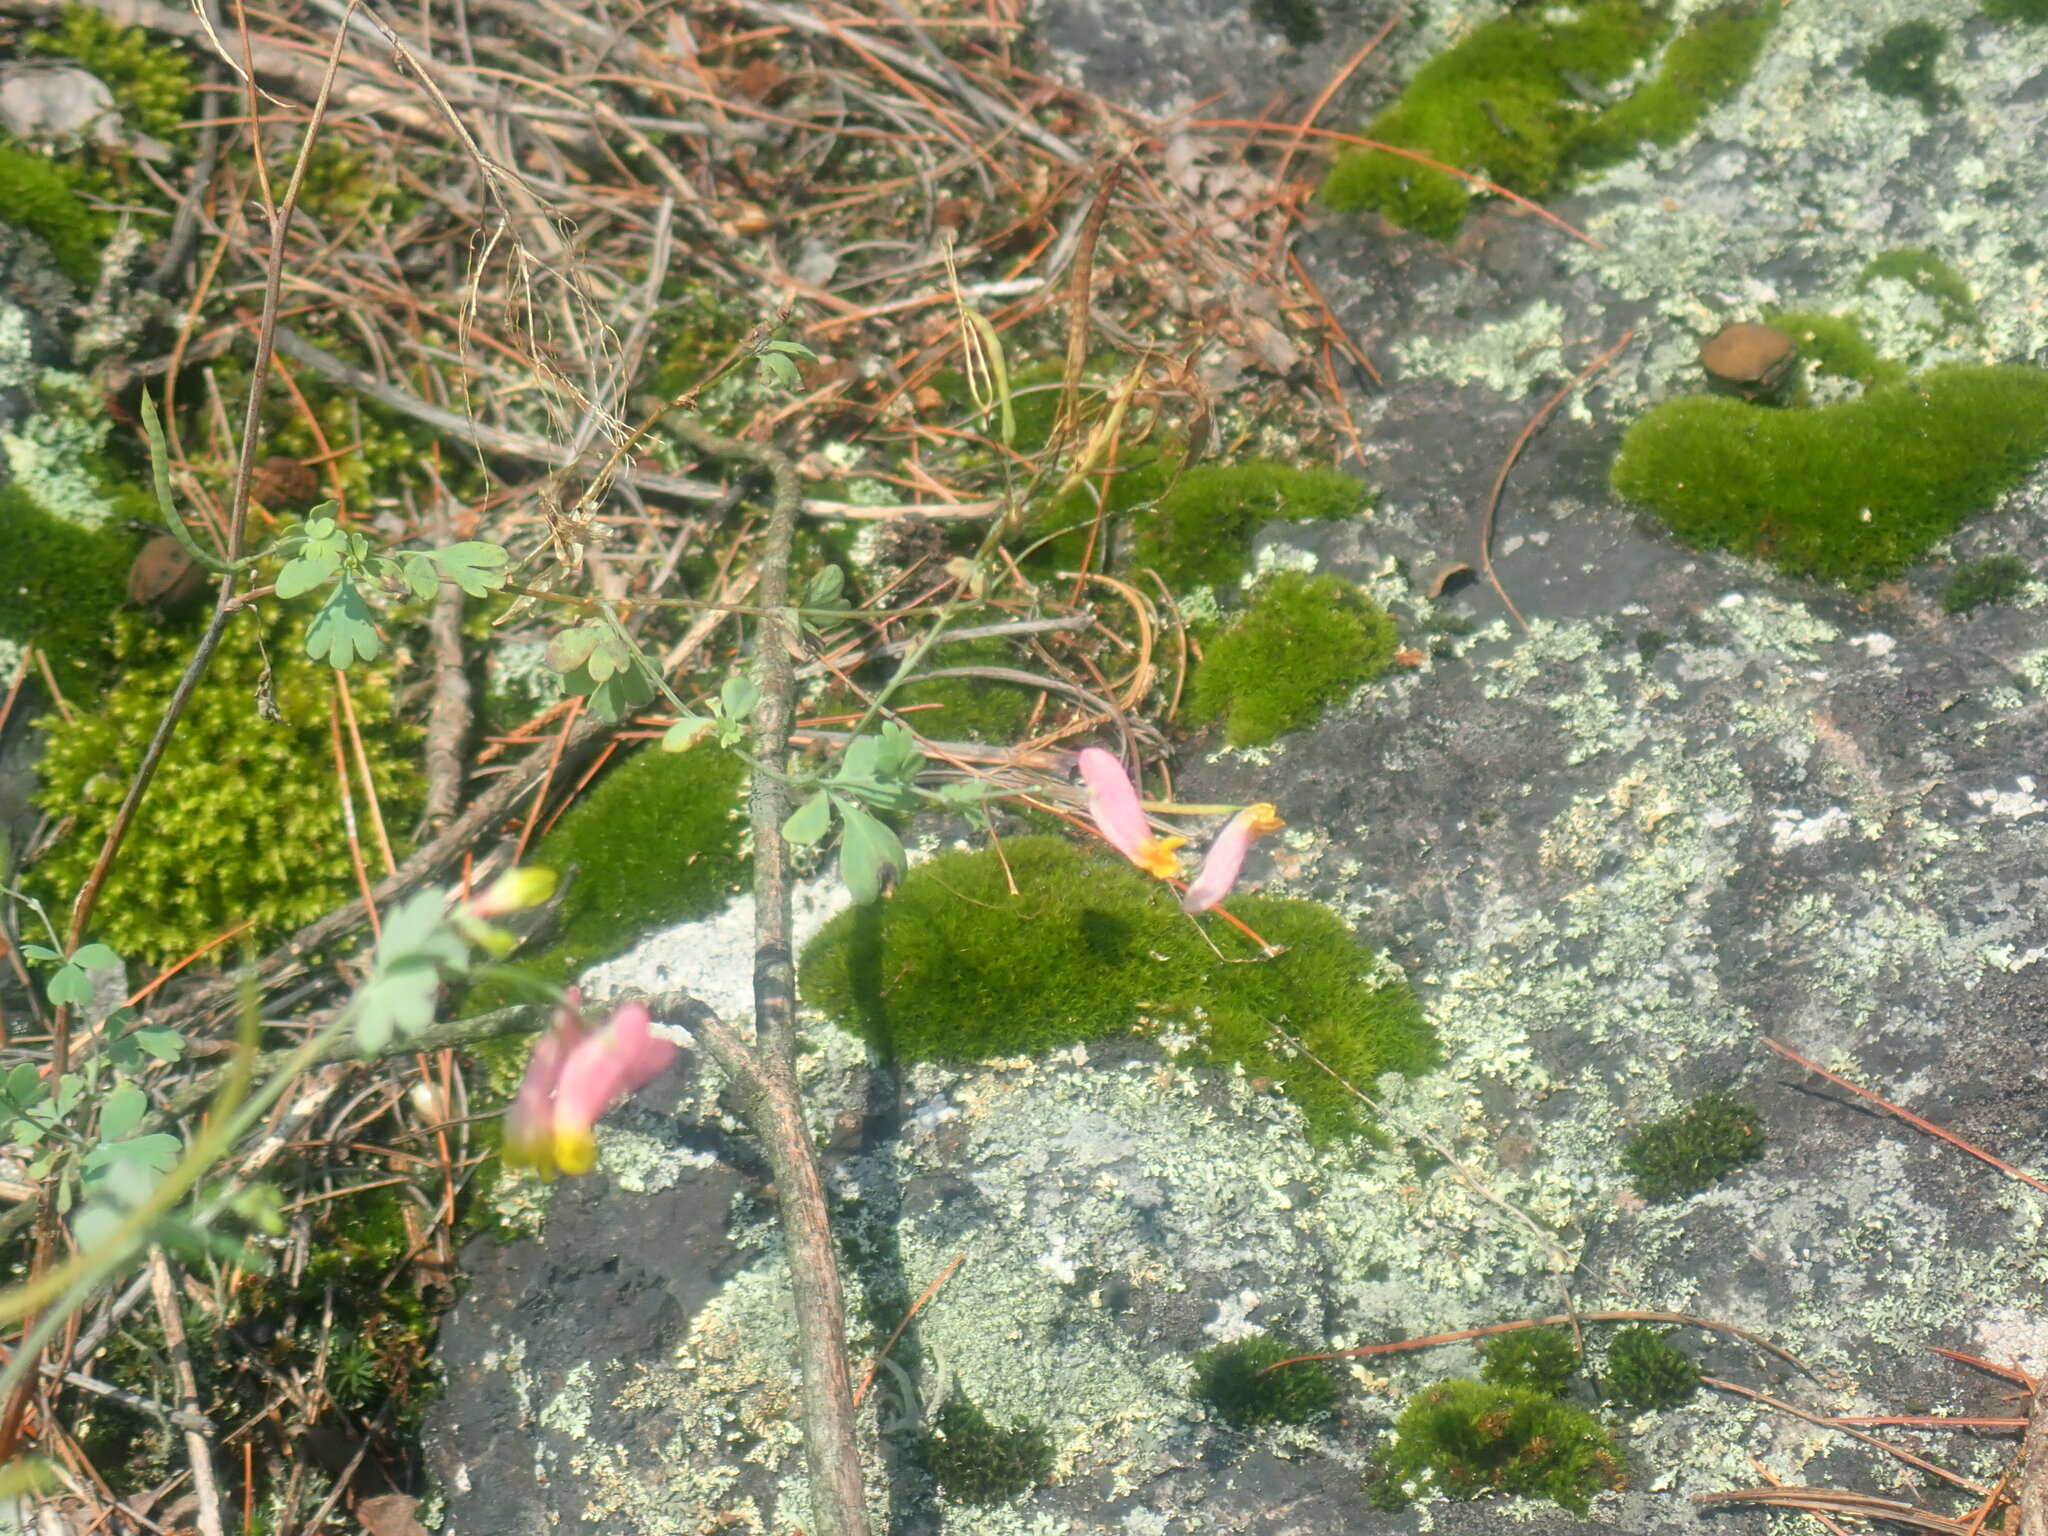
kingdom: Plantae
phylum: Tracheophyta
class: Magnoliopsida
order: Ranunculales
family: Papaveraceae
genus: Capnoides
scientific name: Capnoides sempervirens
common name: Rock harlequin
